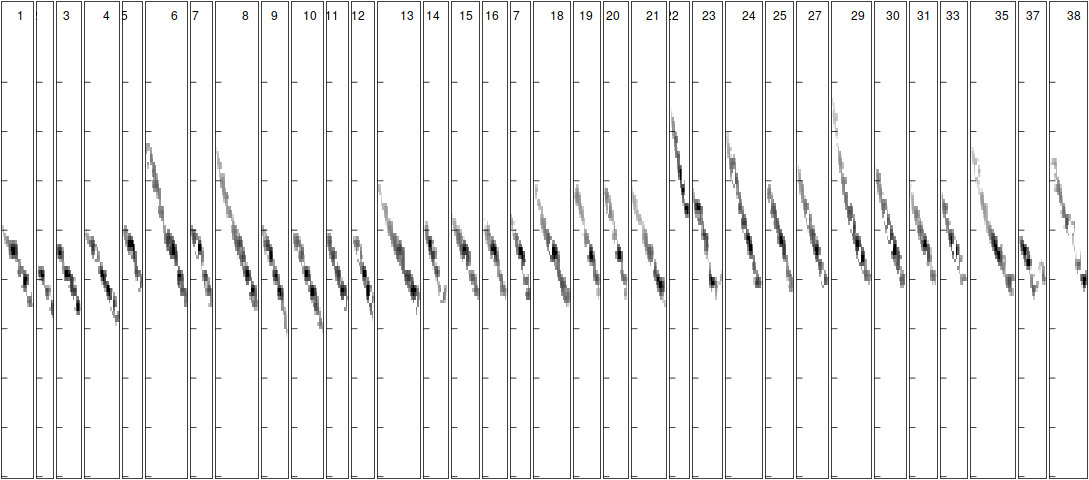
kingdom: Animalia
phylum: Chordata
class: Mammalia
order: Chiroptera
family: Vespertilionidae
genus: Myotis
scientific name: Myotis daubentonii
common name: Daubenton's myotis
